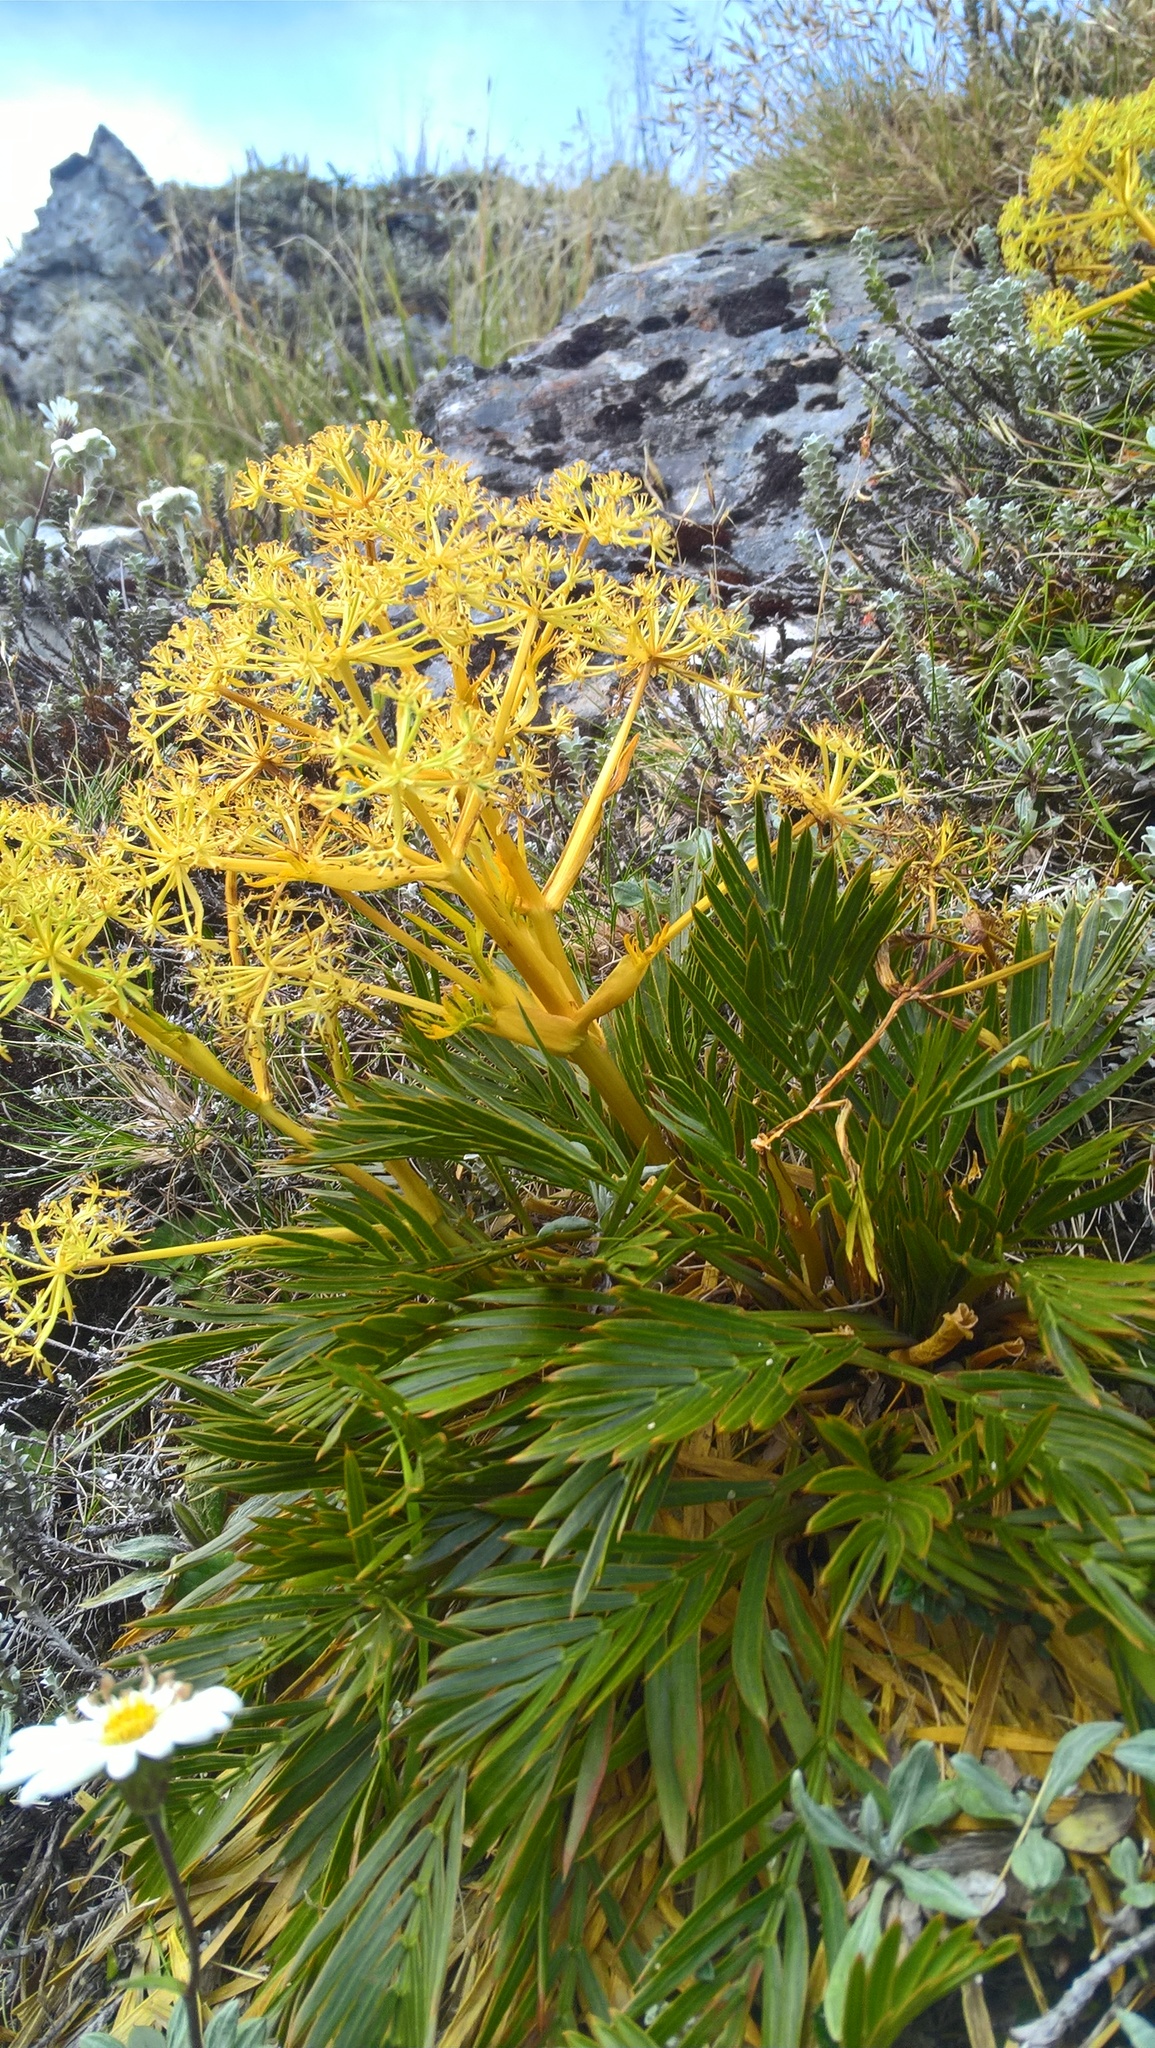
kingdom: Plantae
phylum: Tracheophyta
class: Magnoliopsida
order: Apiales
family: Apiaceae
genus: Aciphylla
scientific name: Aciphylla similis
